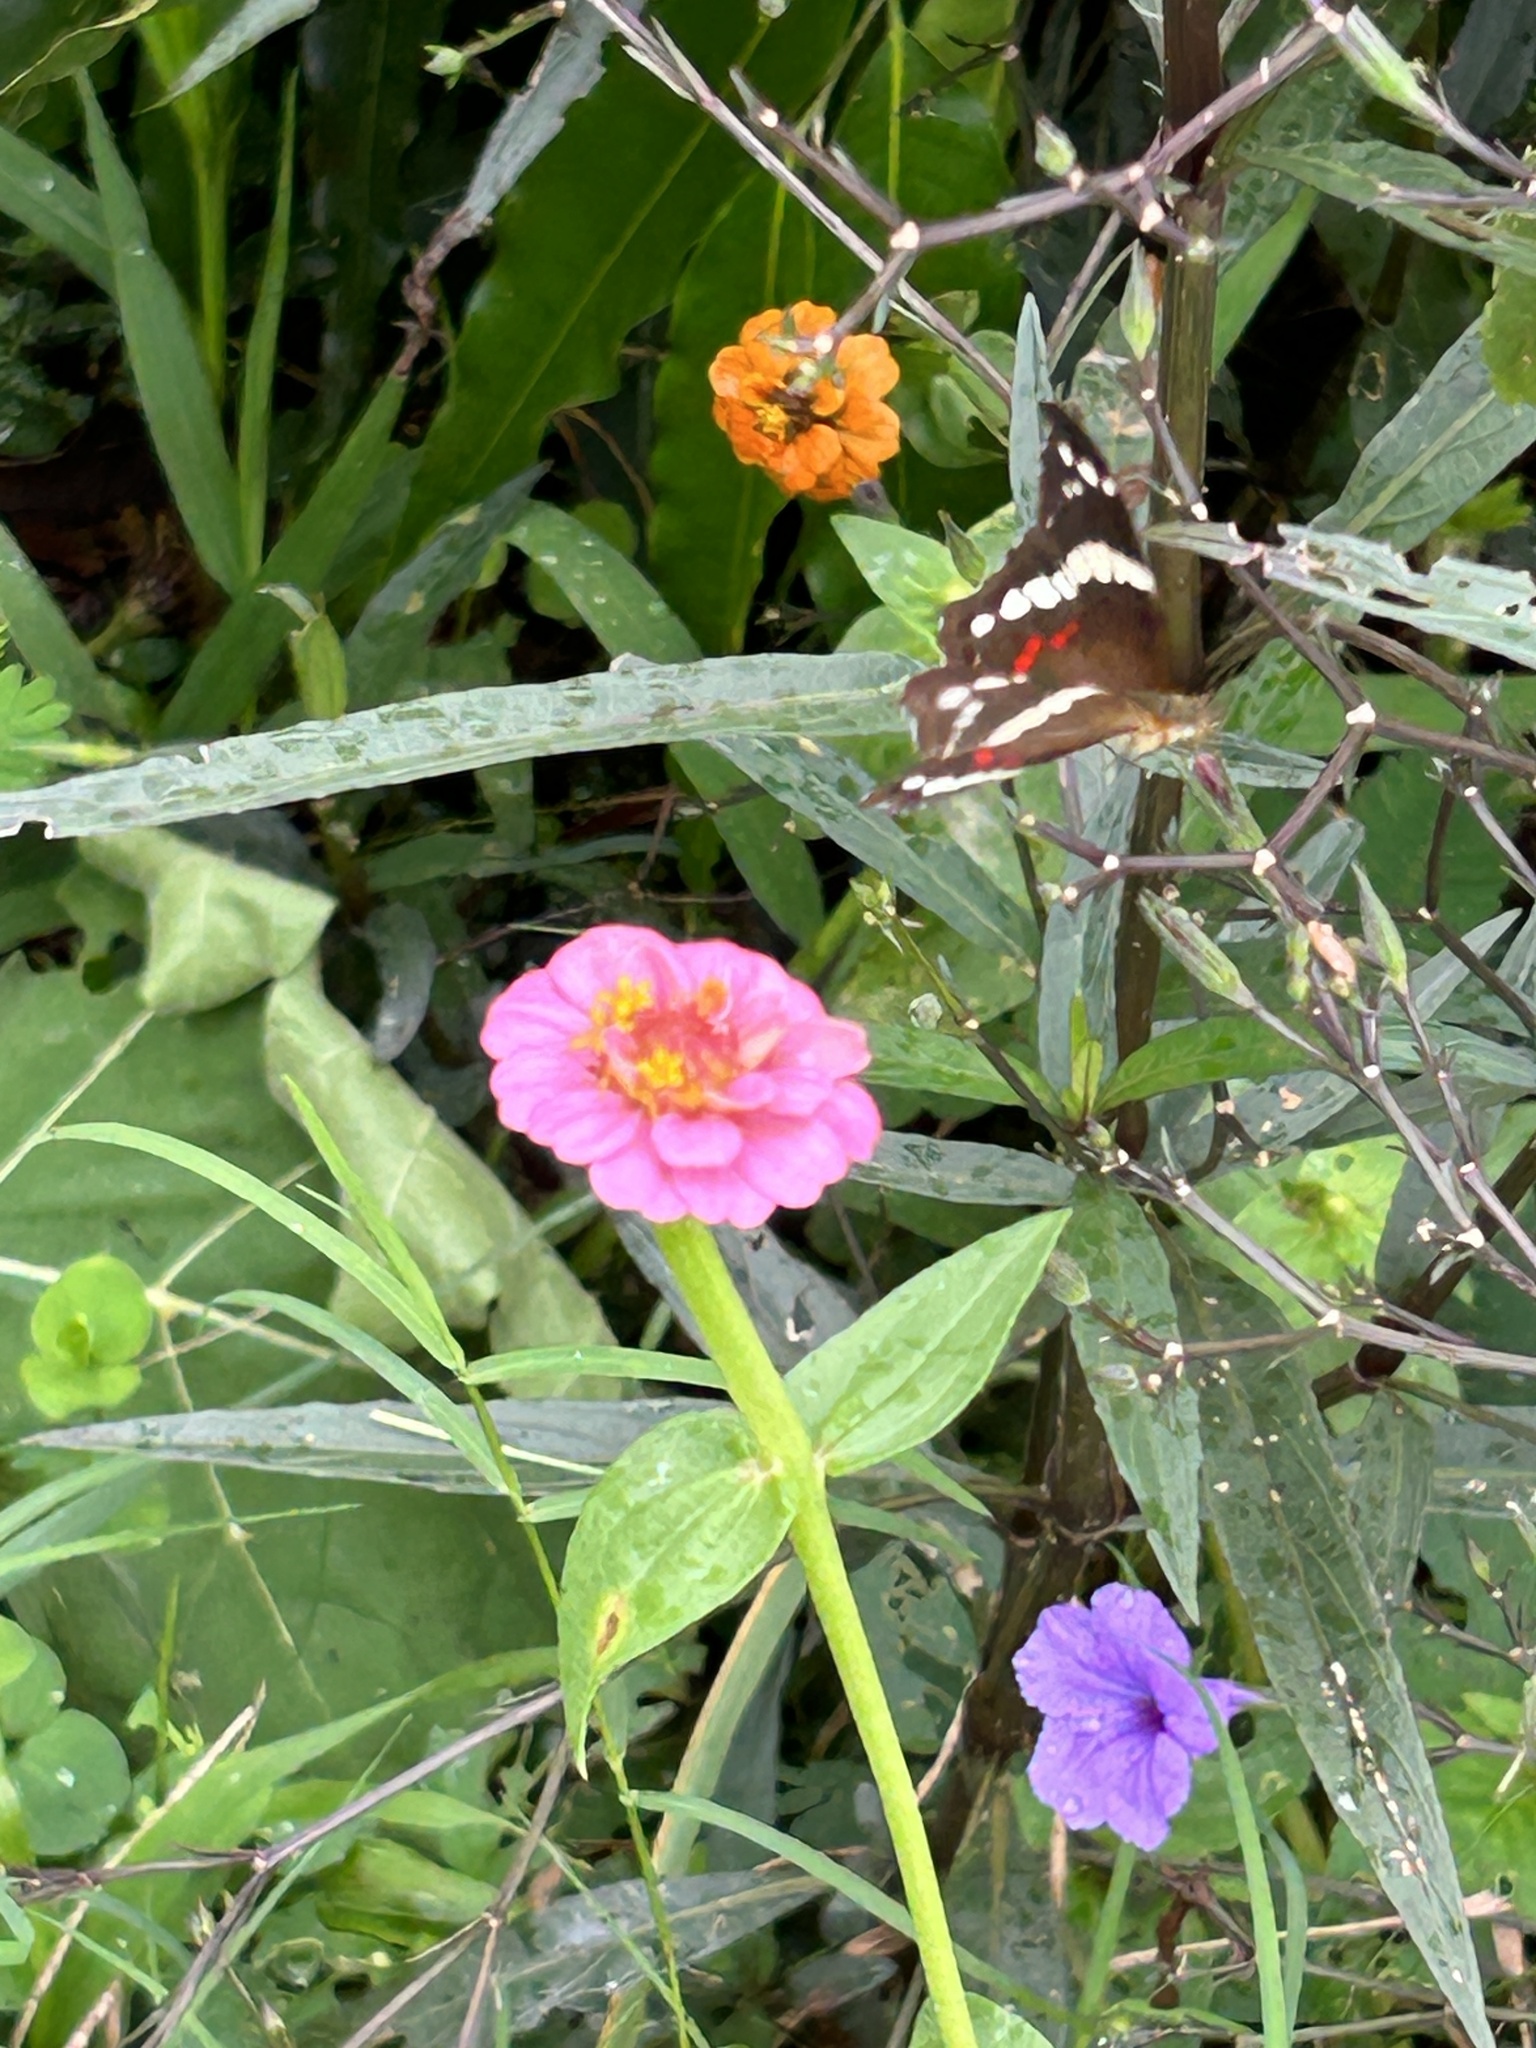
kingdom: Animalia
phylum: Arthropoda
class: Insecta
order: Lepidoptera
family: Nymphalidae
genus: Anartia
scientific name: Anartia fatima
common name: Banded peacock
